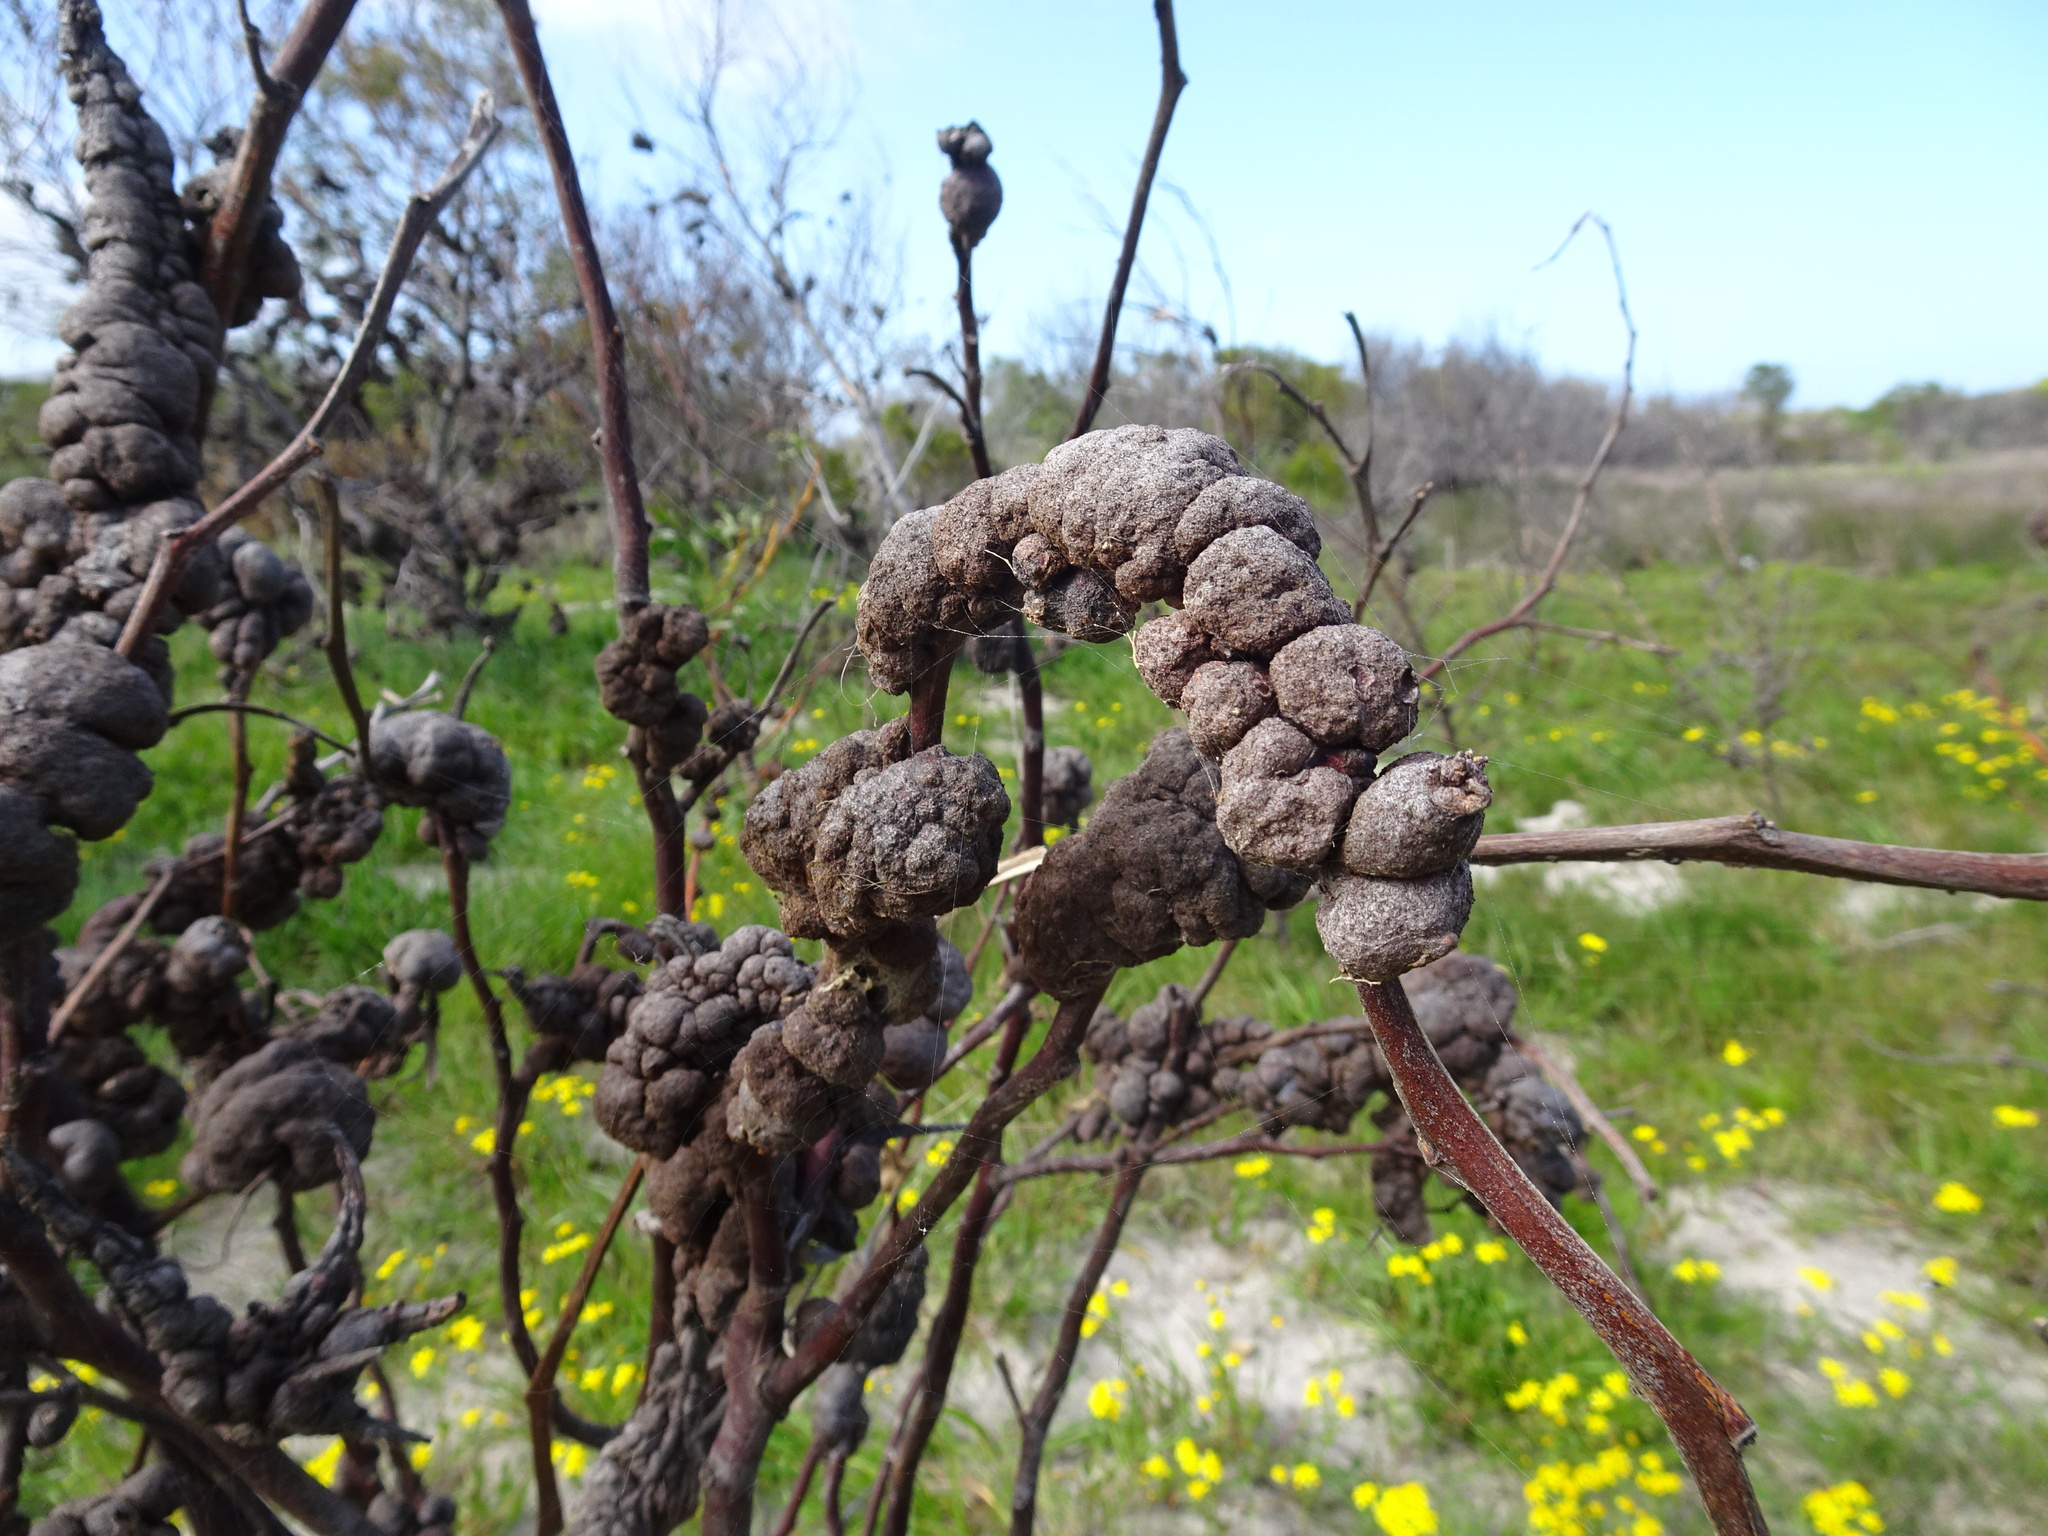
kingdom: Fungi
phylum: Basidiomycota
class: Pucciniomycetes
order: Pucciniales
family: Uromycladiaceae
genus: Uromycladium
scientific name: Uromycladium morrisii
